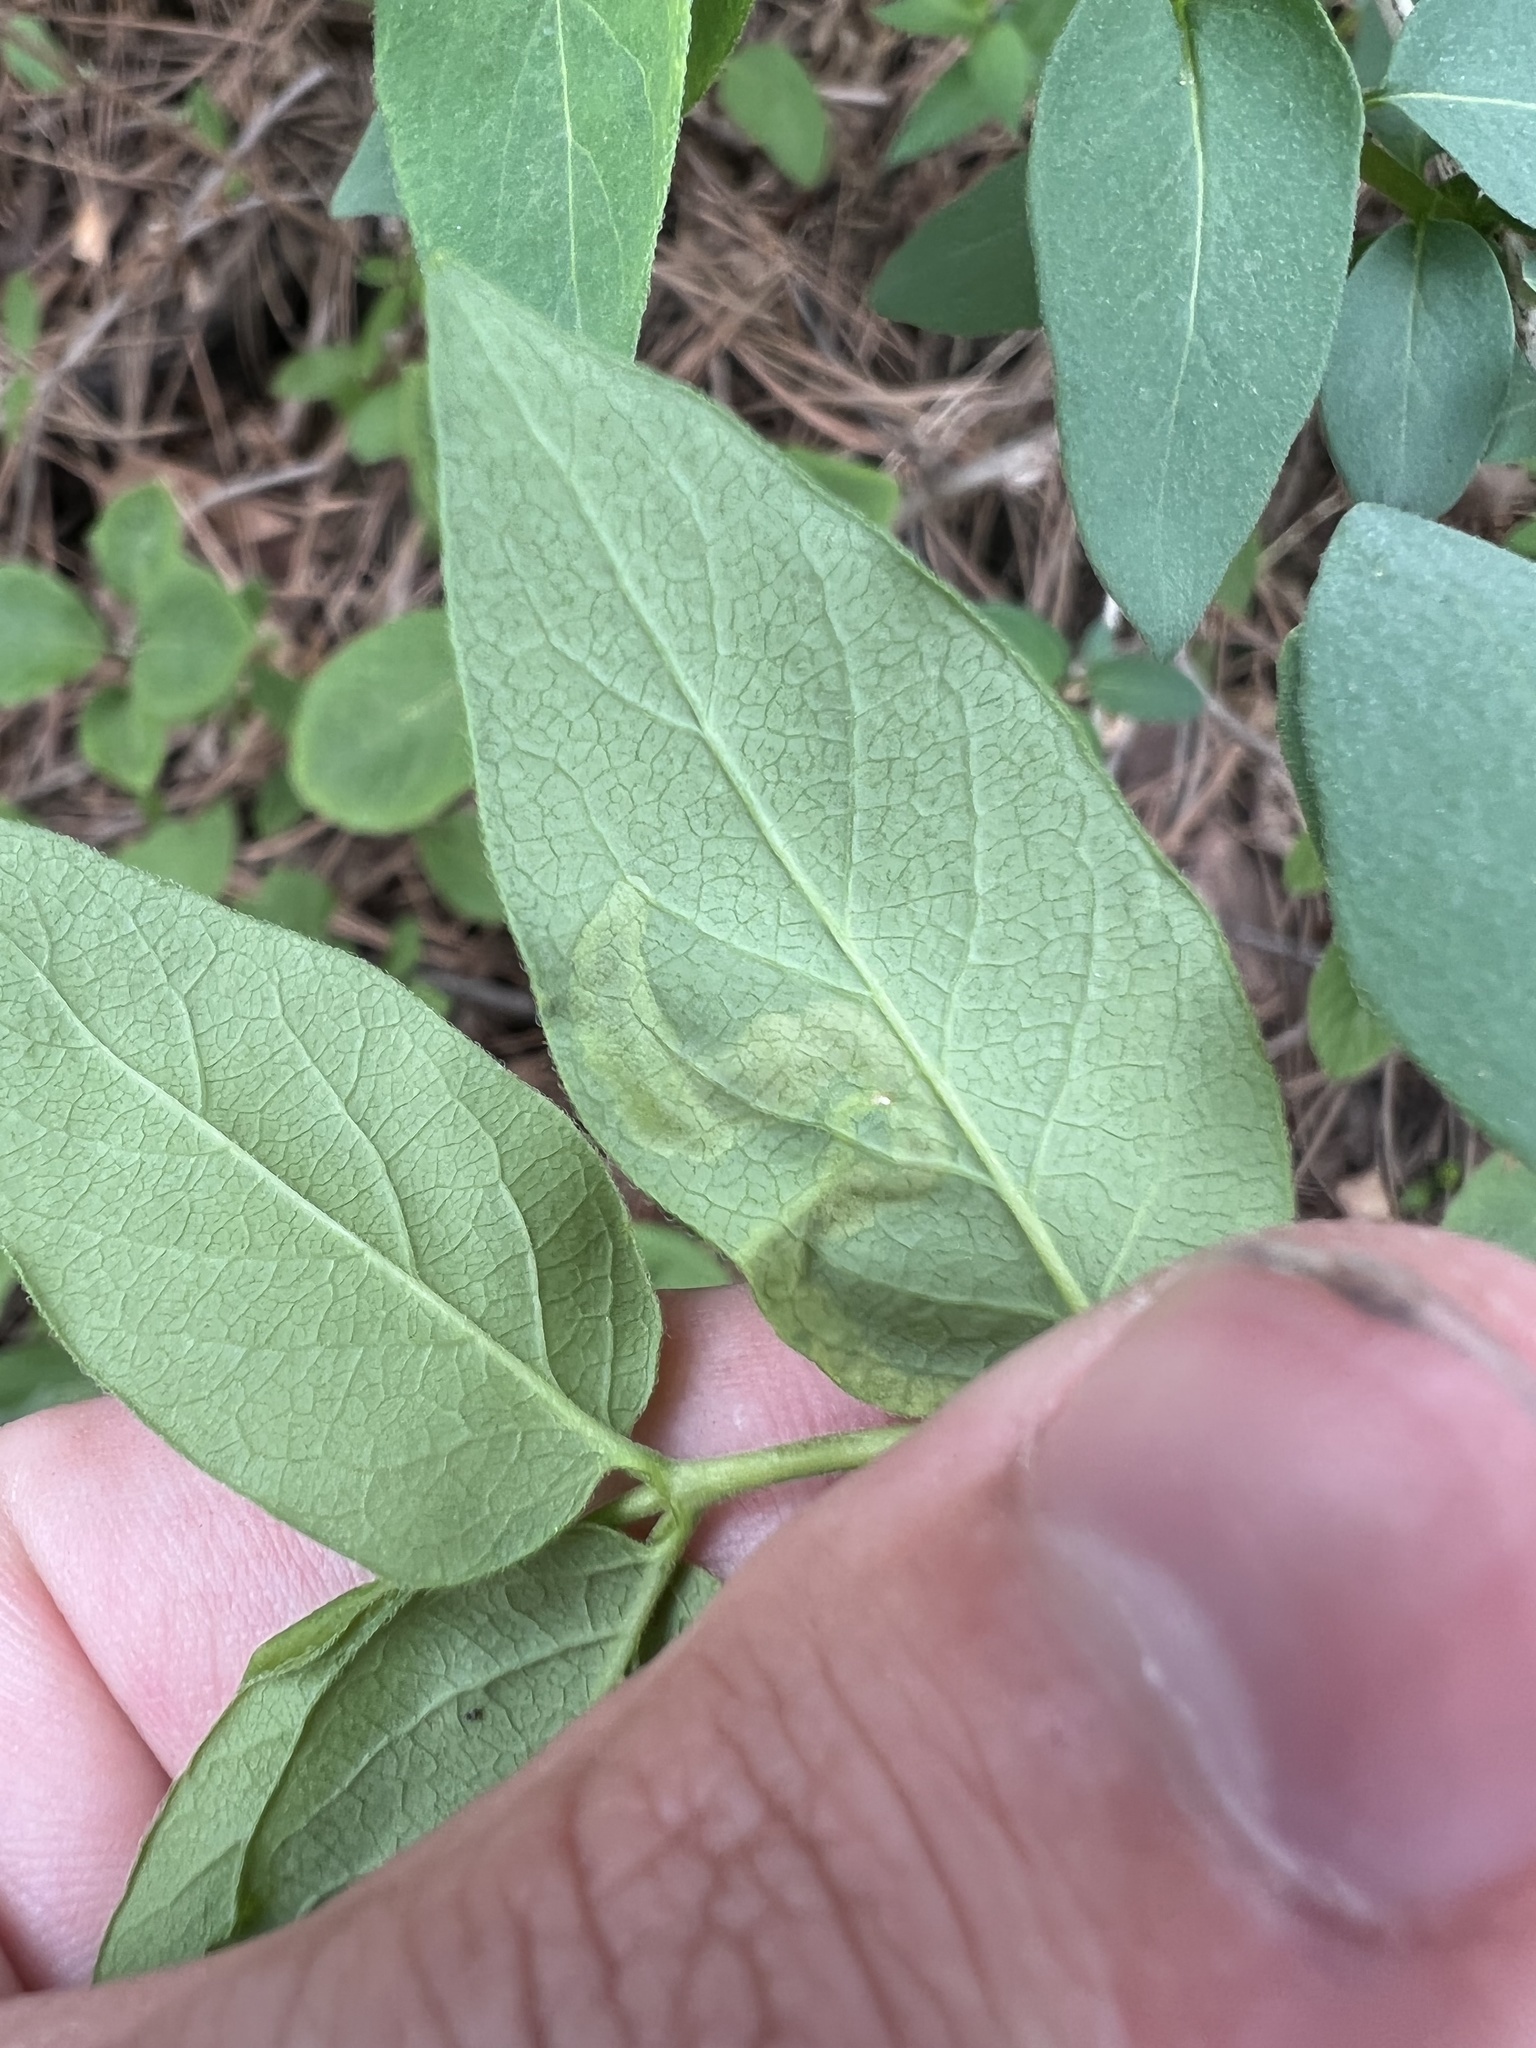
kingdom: Animalia
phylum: Arthropoda
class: Insecta
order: Diptera
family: Agromyzidae
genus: Aulagromyza
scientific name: Aulagromyza cornigera
